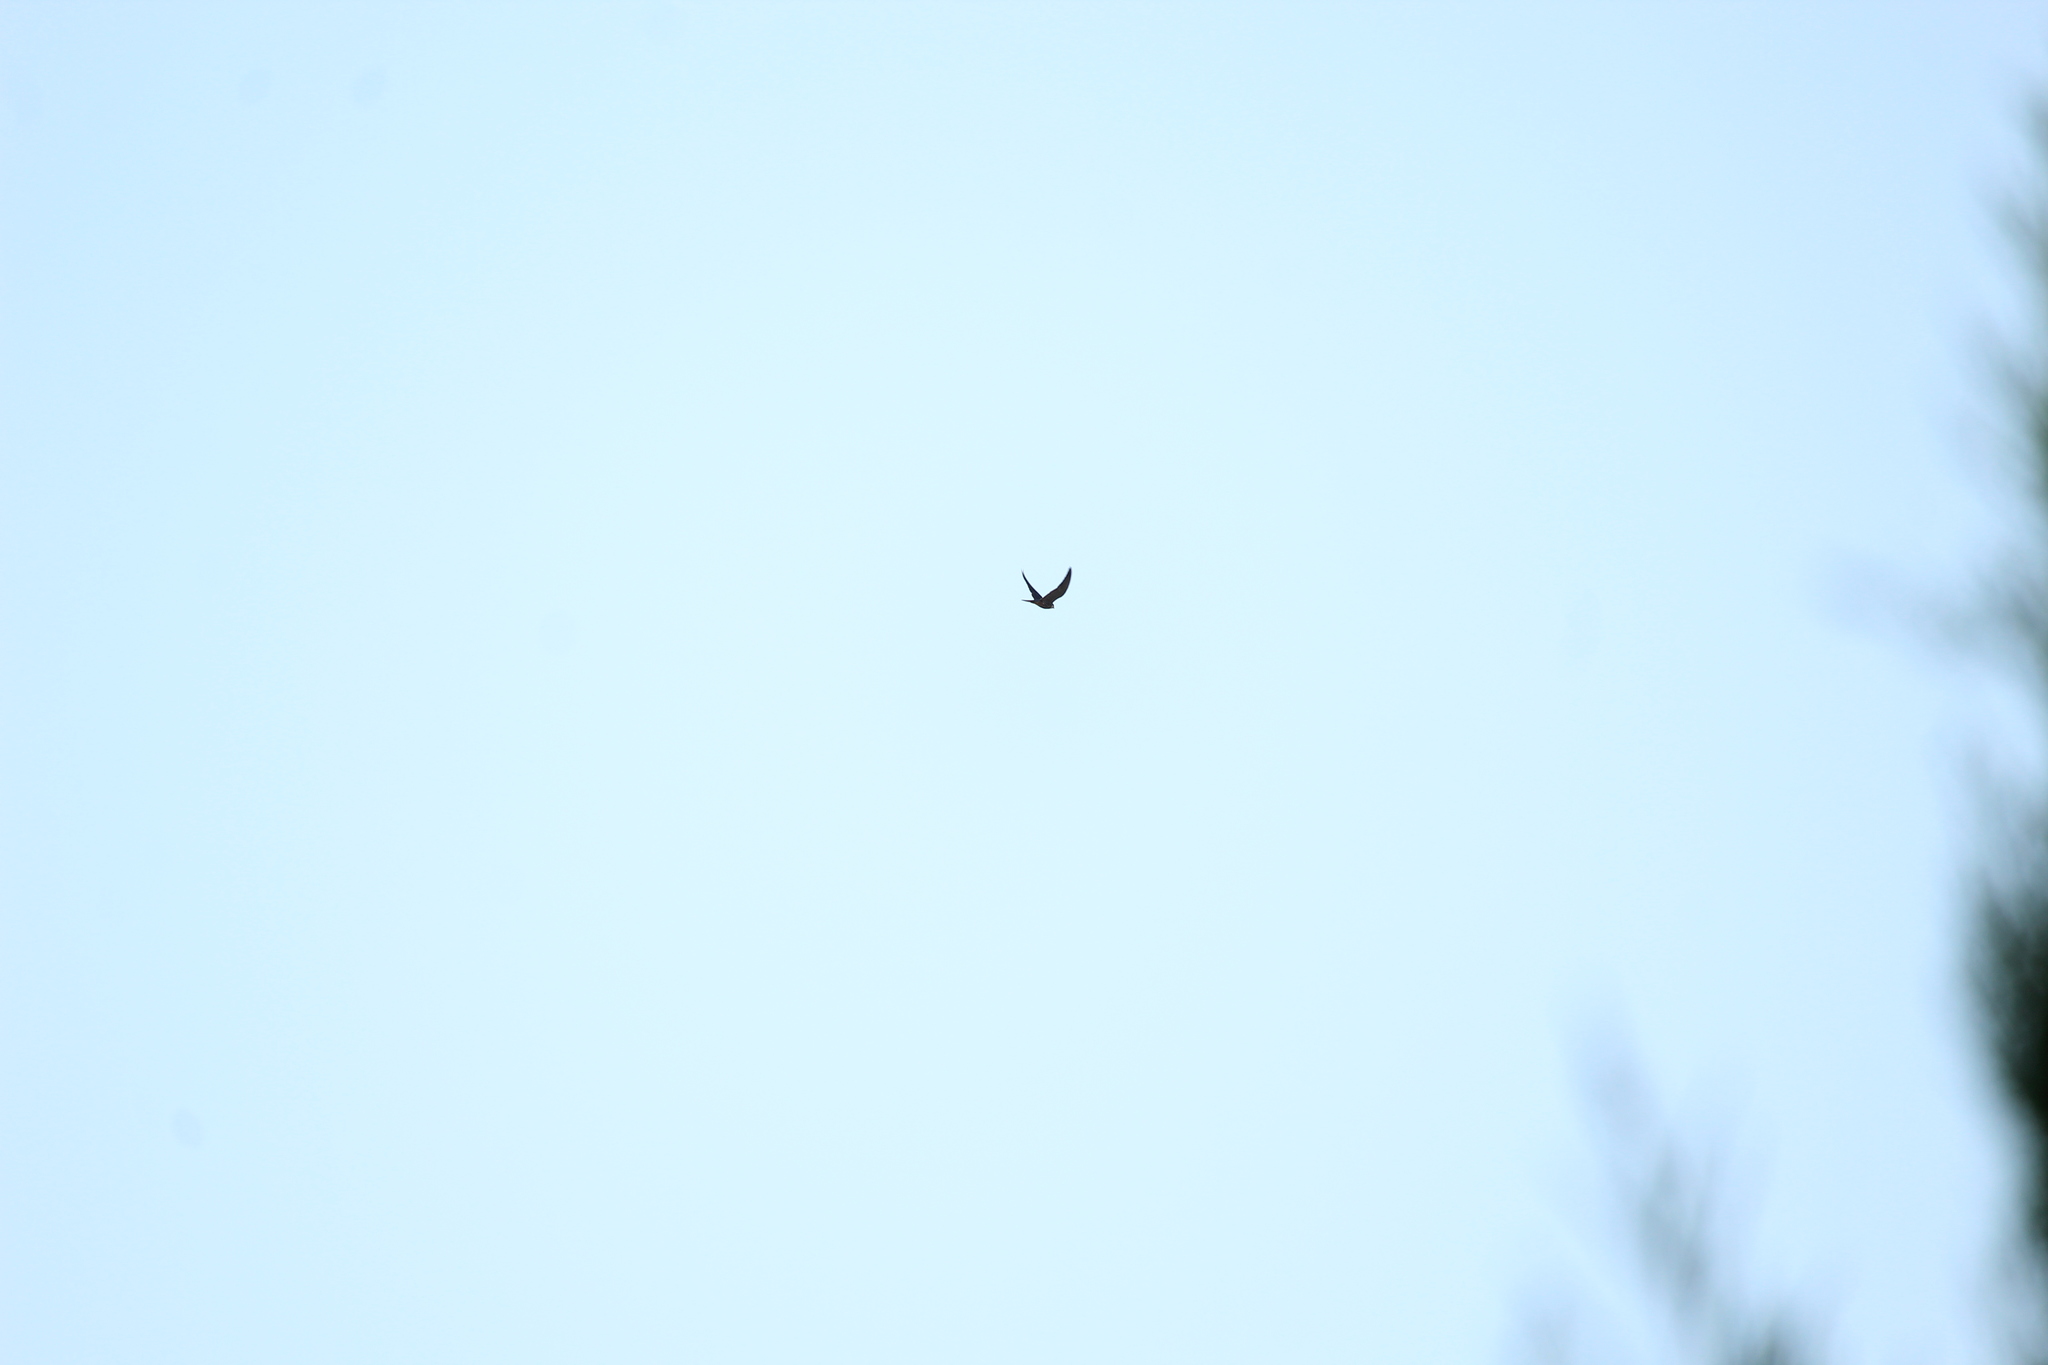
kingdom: Animalia
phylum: Chordata
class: Aves
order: Falconiformes
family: Falconidae
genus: Falco
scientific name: Falco subbuteo
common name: Eurasian hobby
